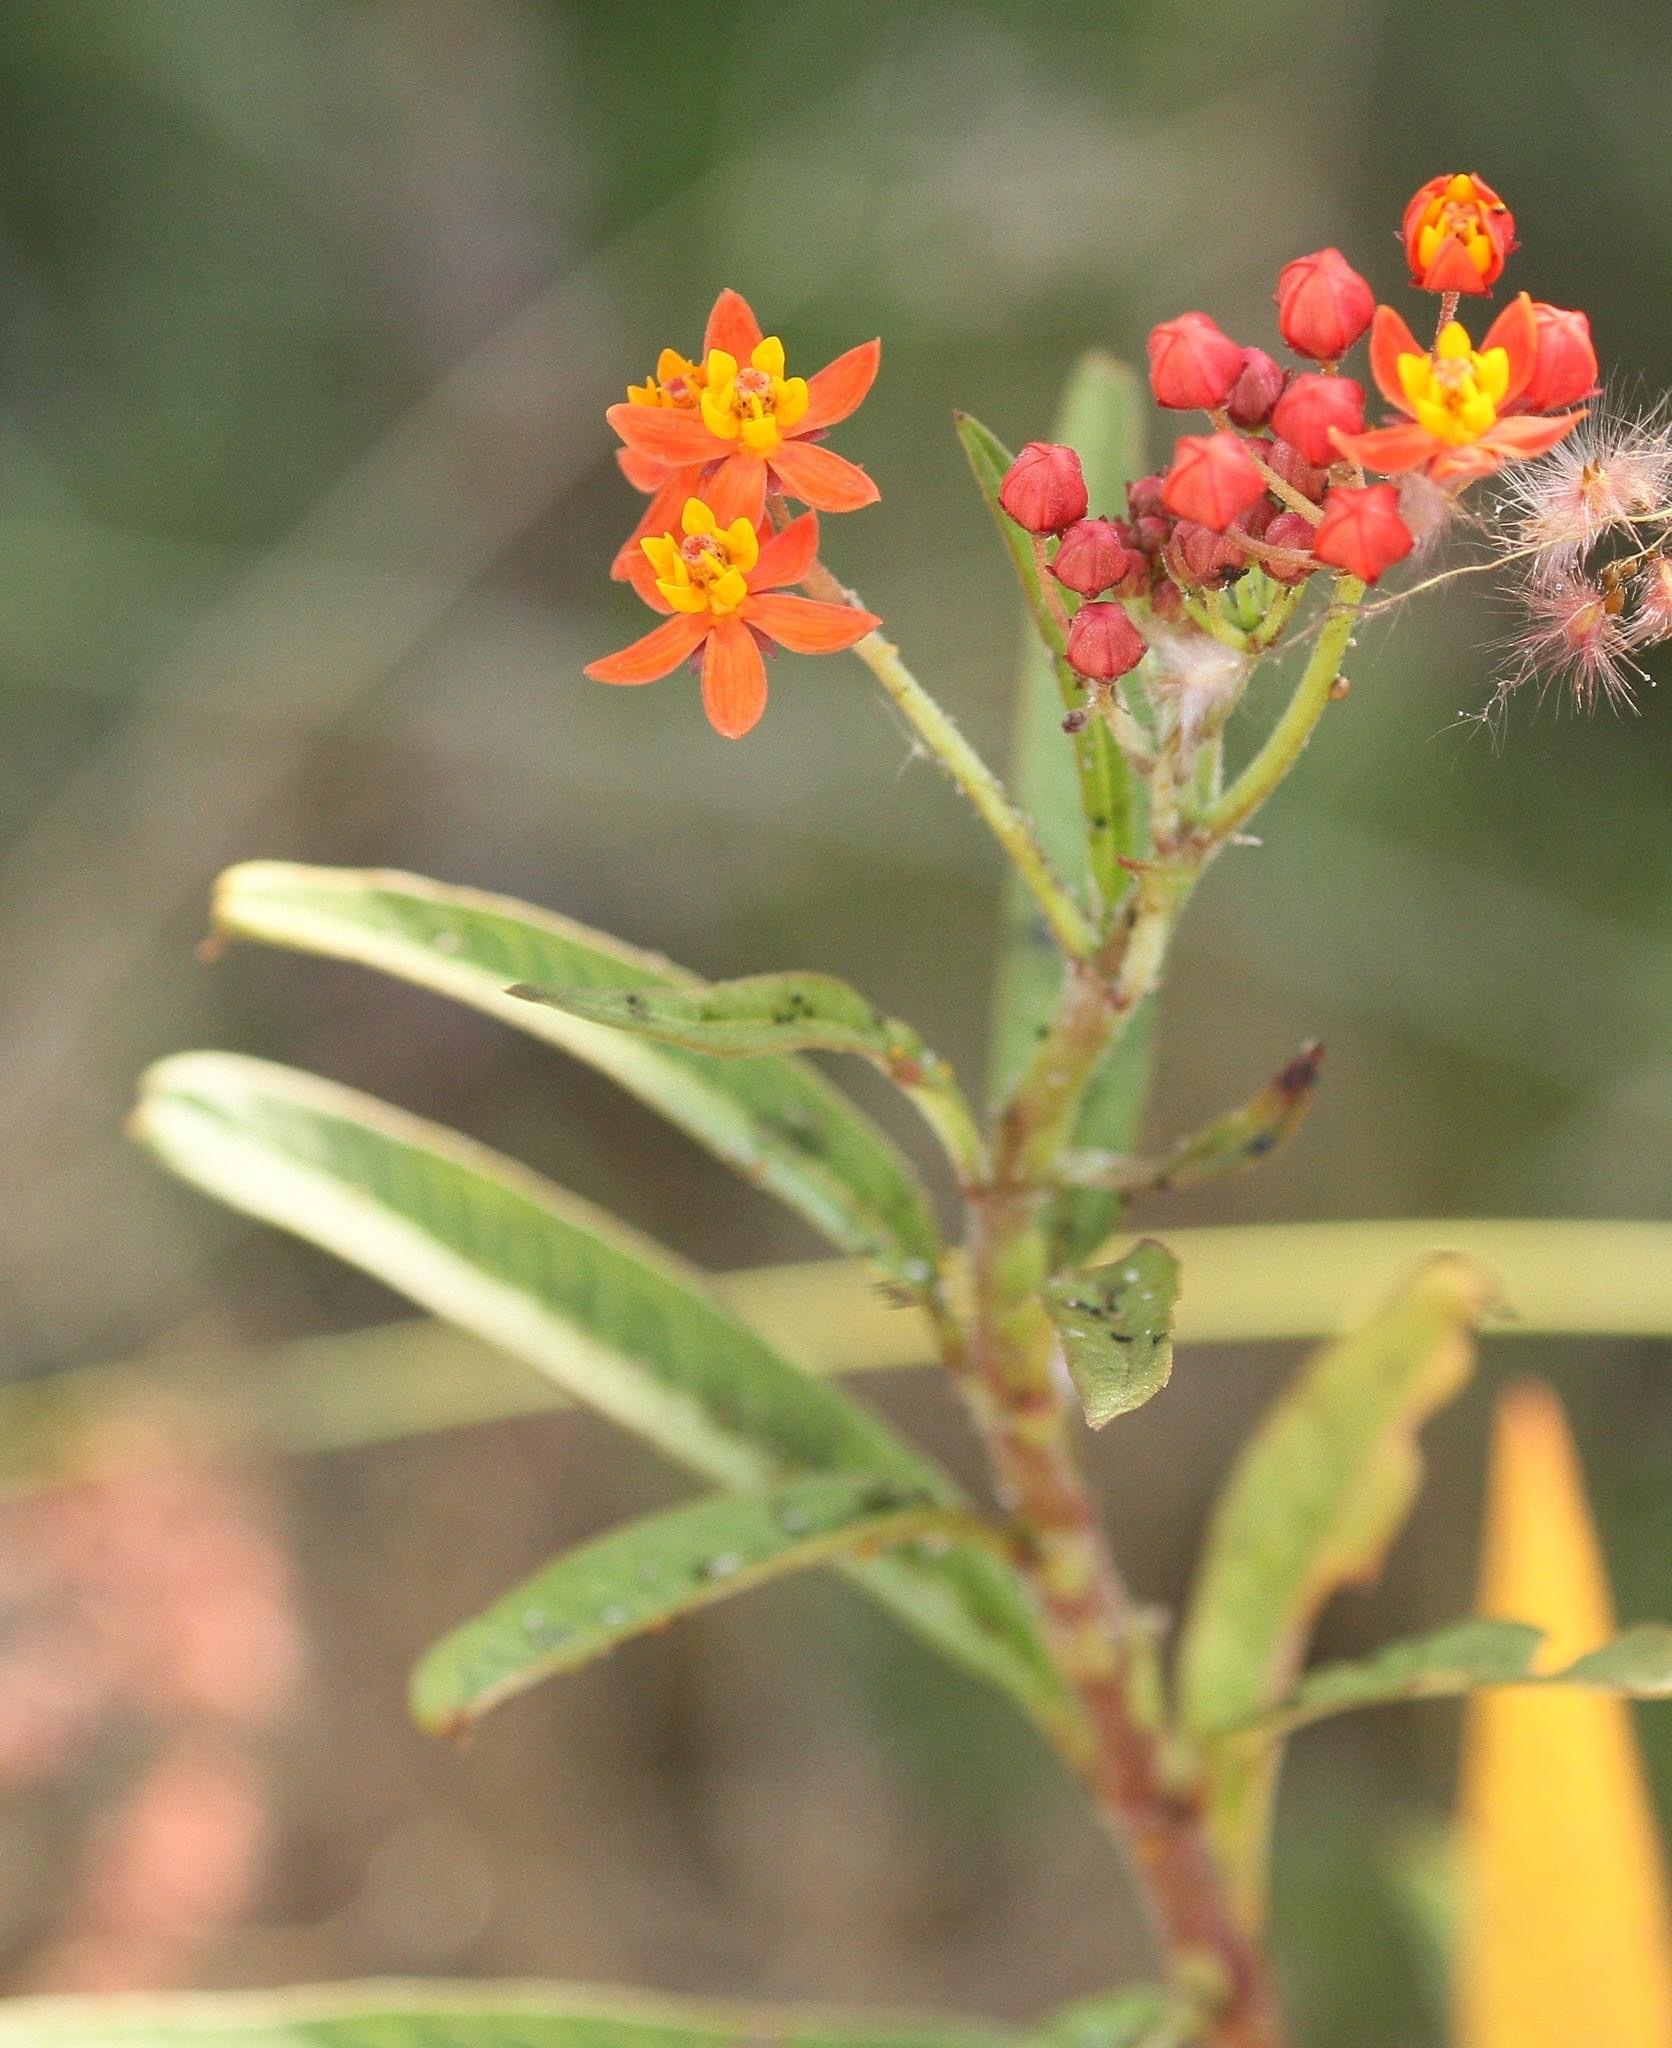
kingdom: Plantae
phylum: Tracheophyta
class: Magnoliopsida
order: Gentianales
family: Apocynaceae
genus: Asclepias
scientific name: Asclepias curassavica
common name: Bloodflower
